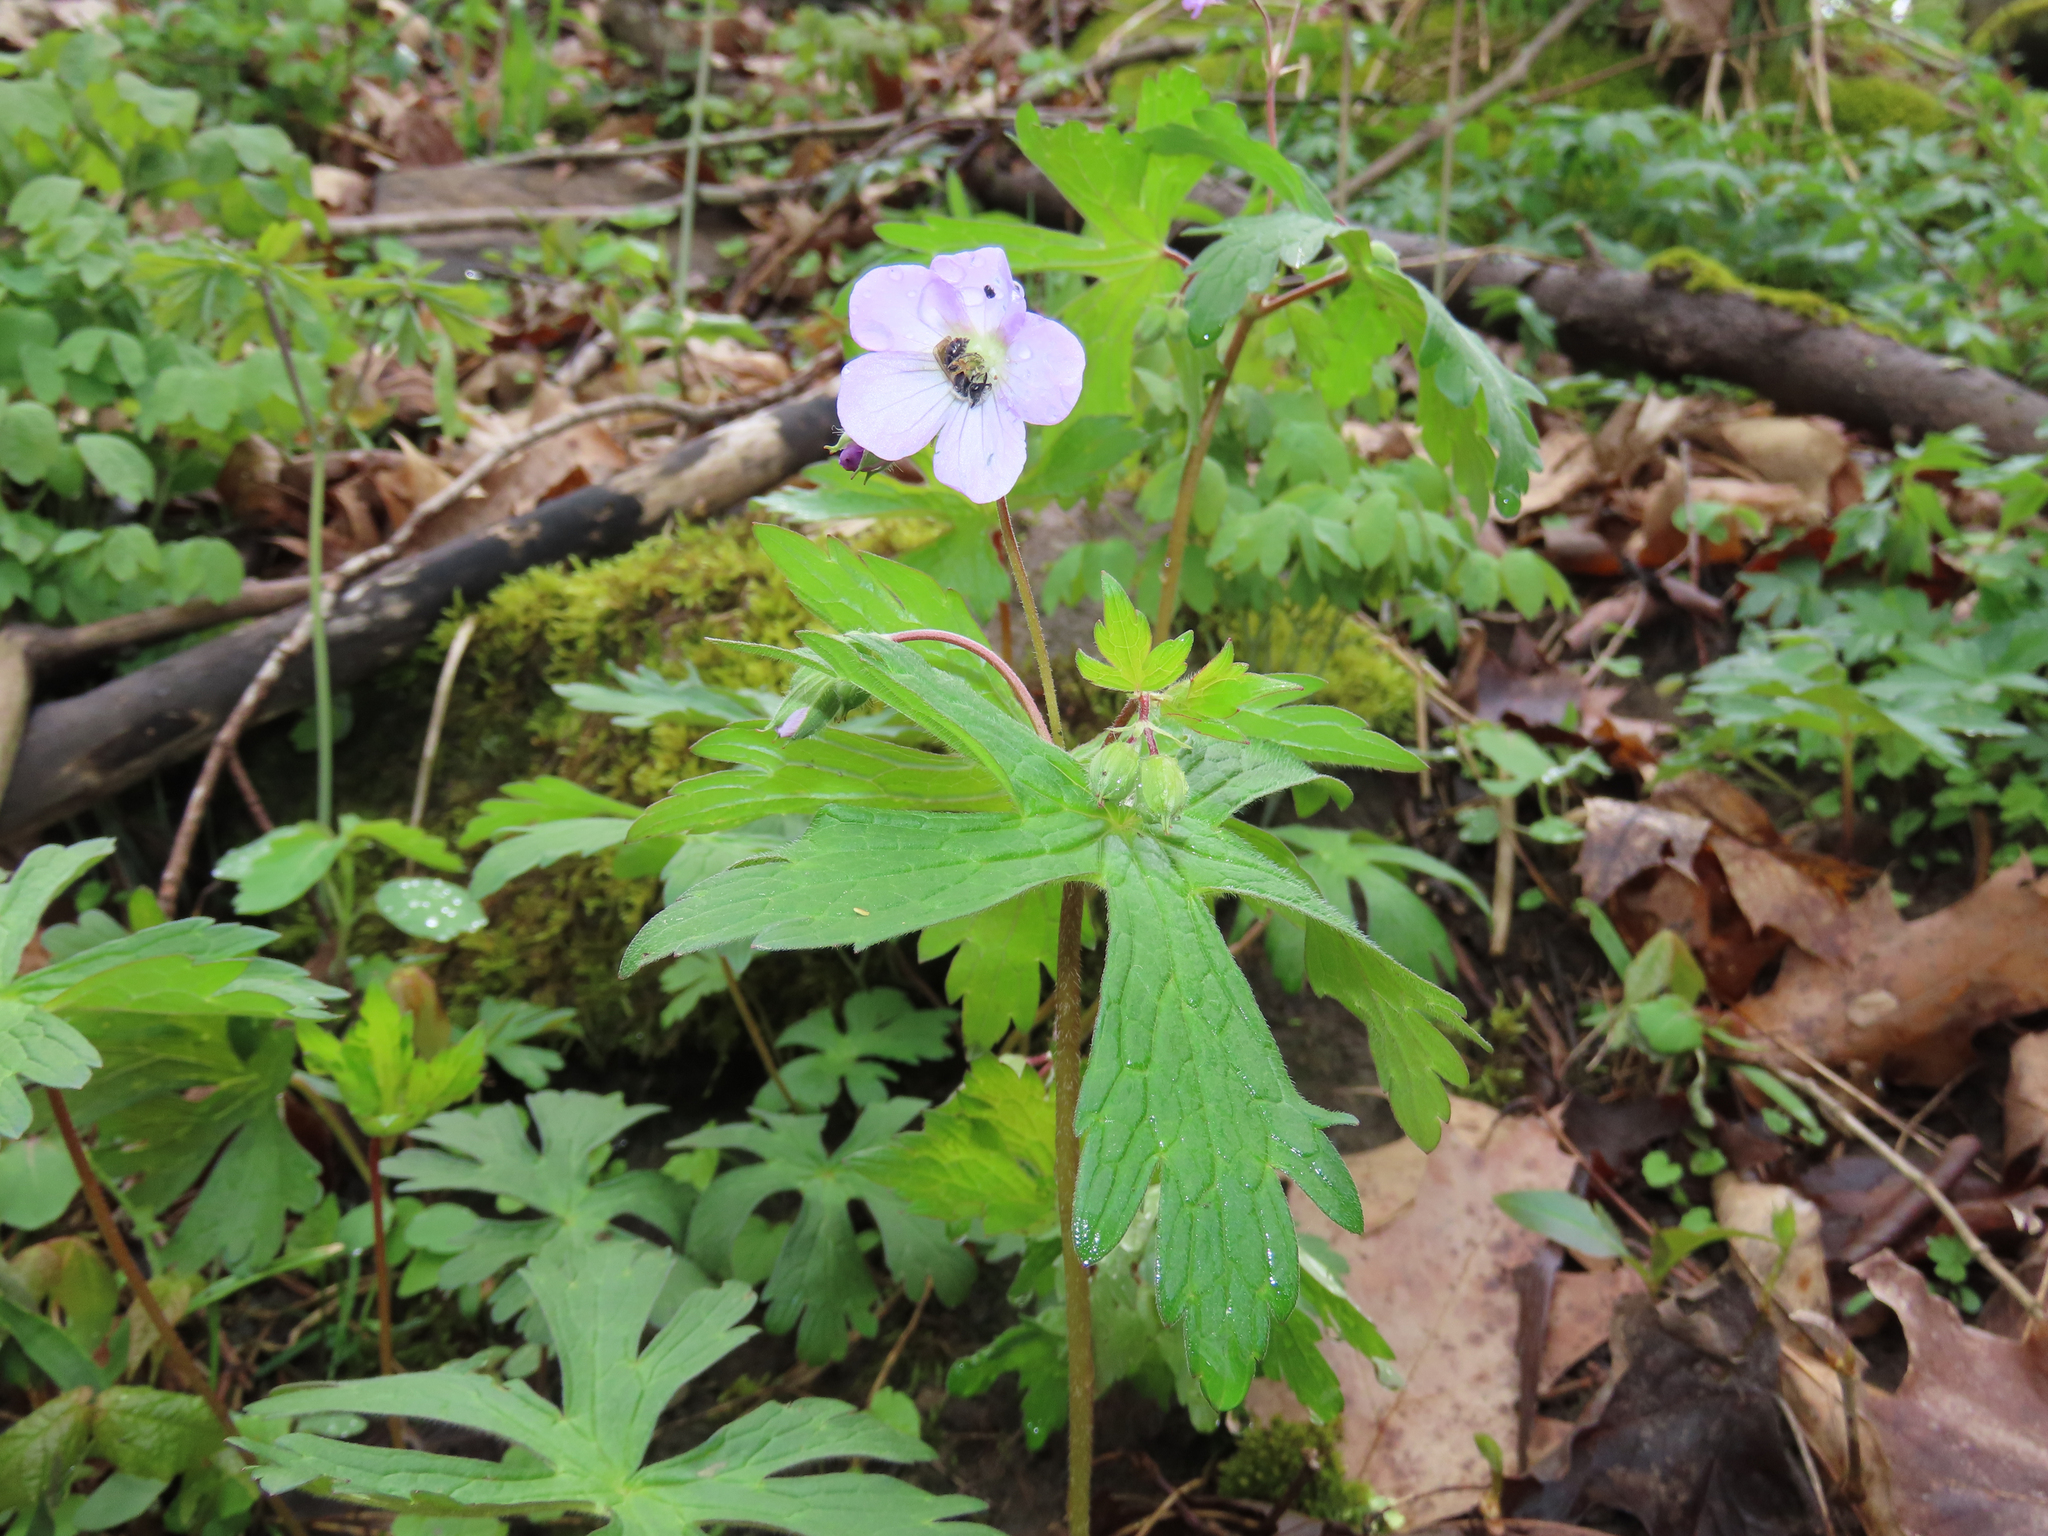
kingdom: Plantae
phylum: Tracheophyta
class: Magnoliopsida
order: Geraniales
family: Geraniaceae
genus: Geranium
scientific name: Geranium maculatum
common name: Spotted geranium
